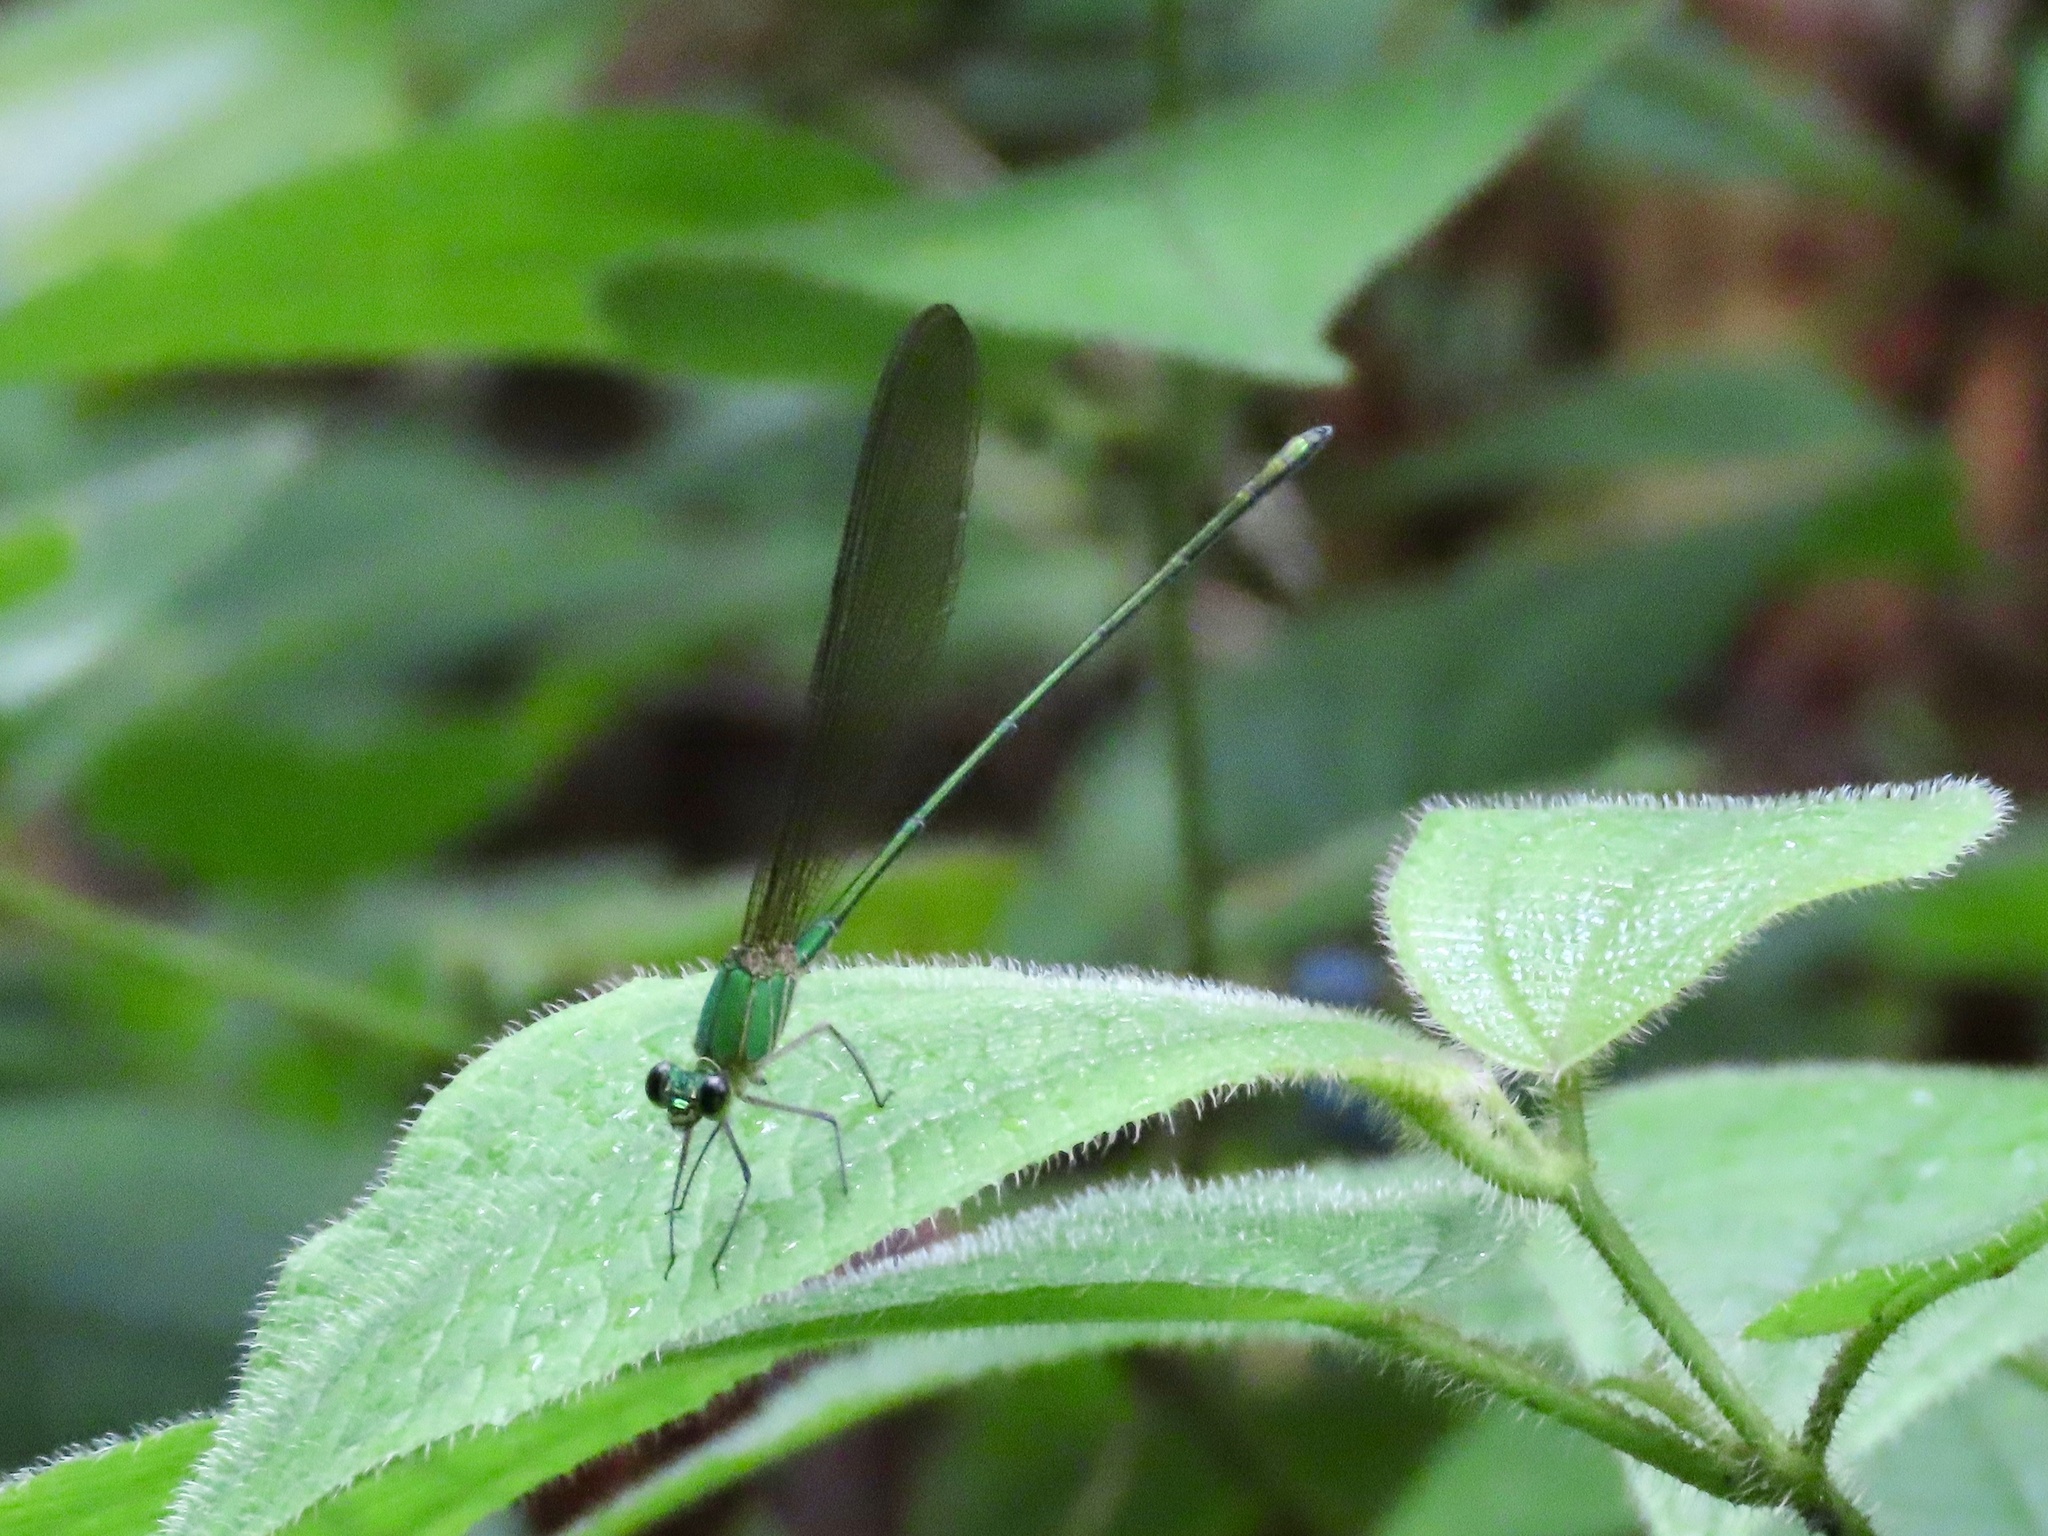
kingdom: Animalia
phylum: Arthropoda
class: Insecta
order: Odonata
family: Calopterygidae
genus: Vestalis
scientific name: Vestalis gracilis
